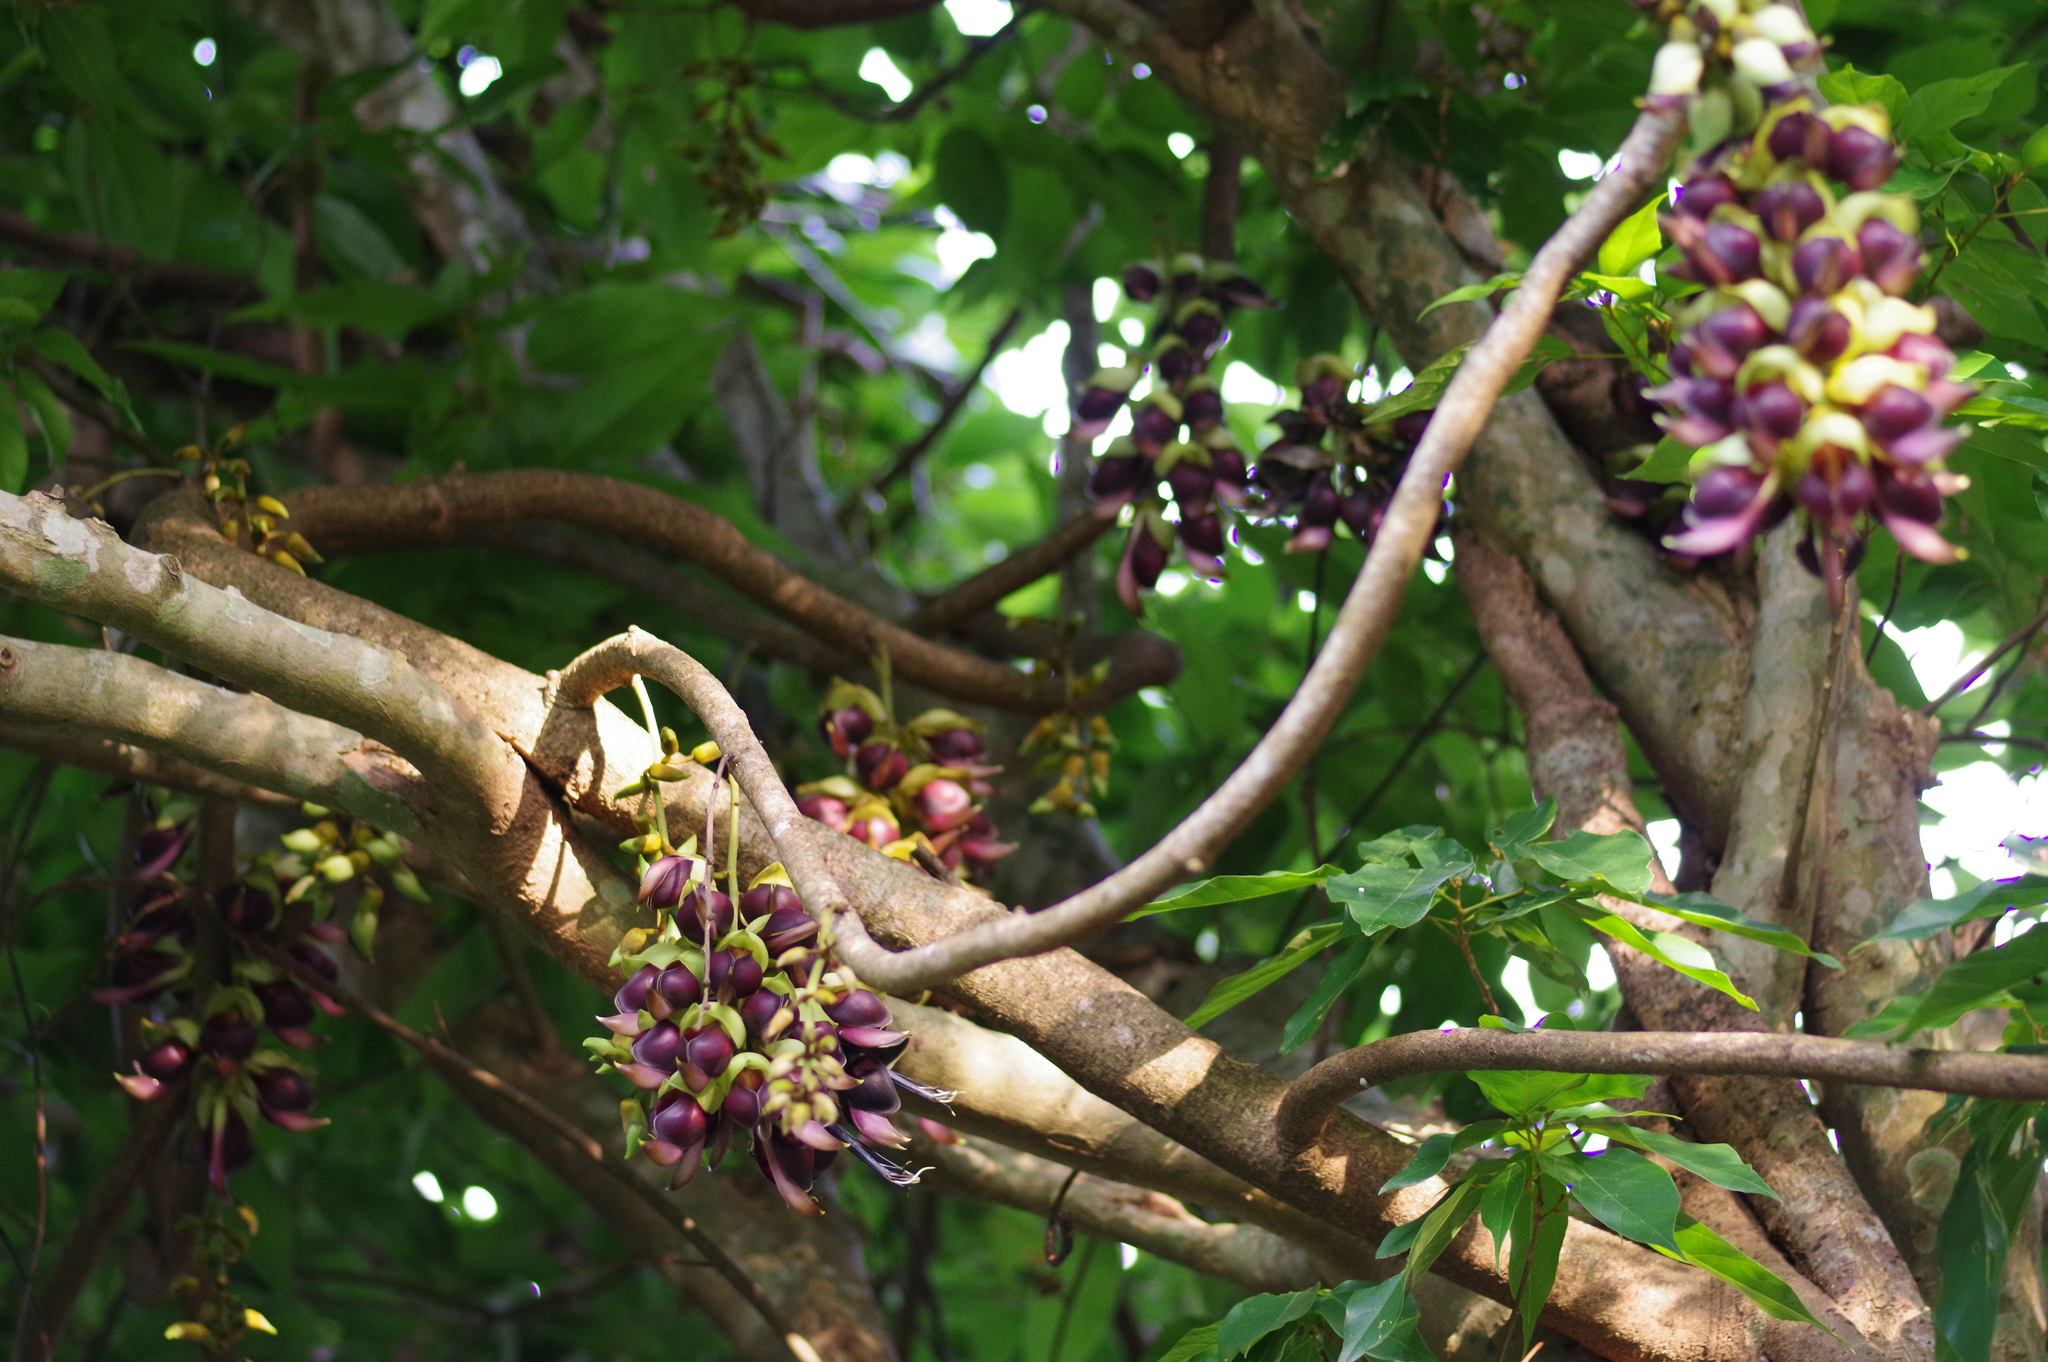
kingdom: Plantae
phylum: Tracheophyta
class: Magnoliopsida
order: Fabales
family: Fabaceae
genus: Mucuna
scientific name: Mucuna macrocarpa
